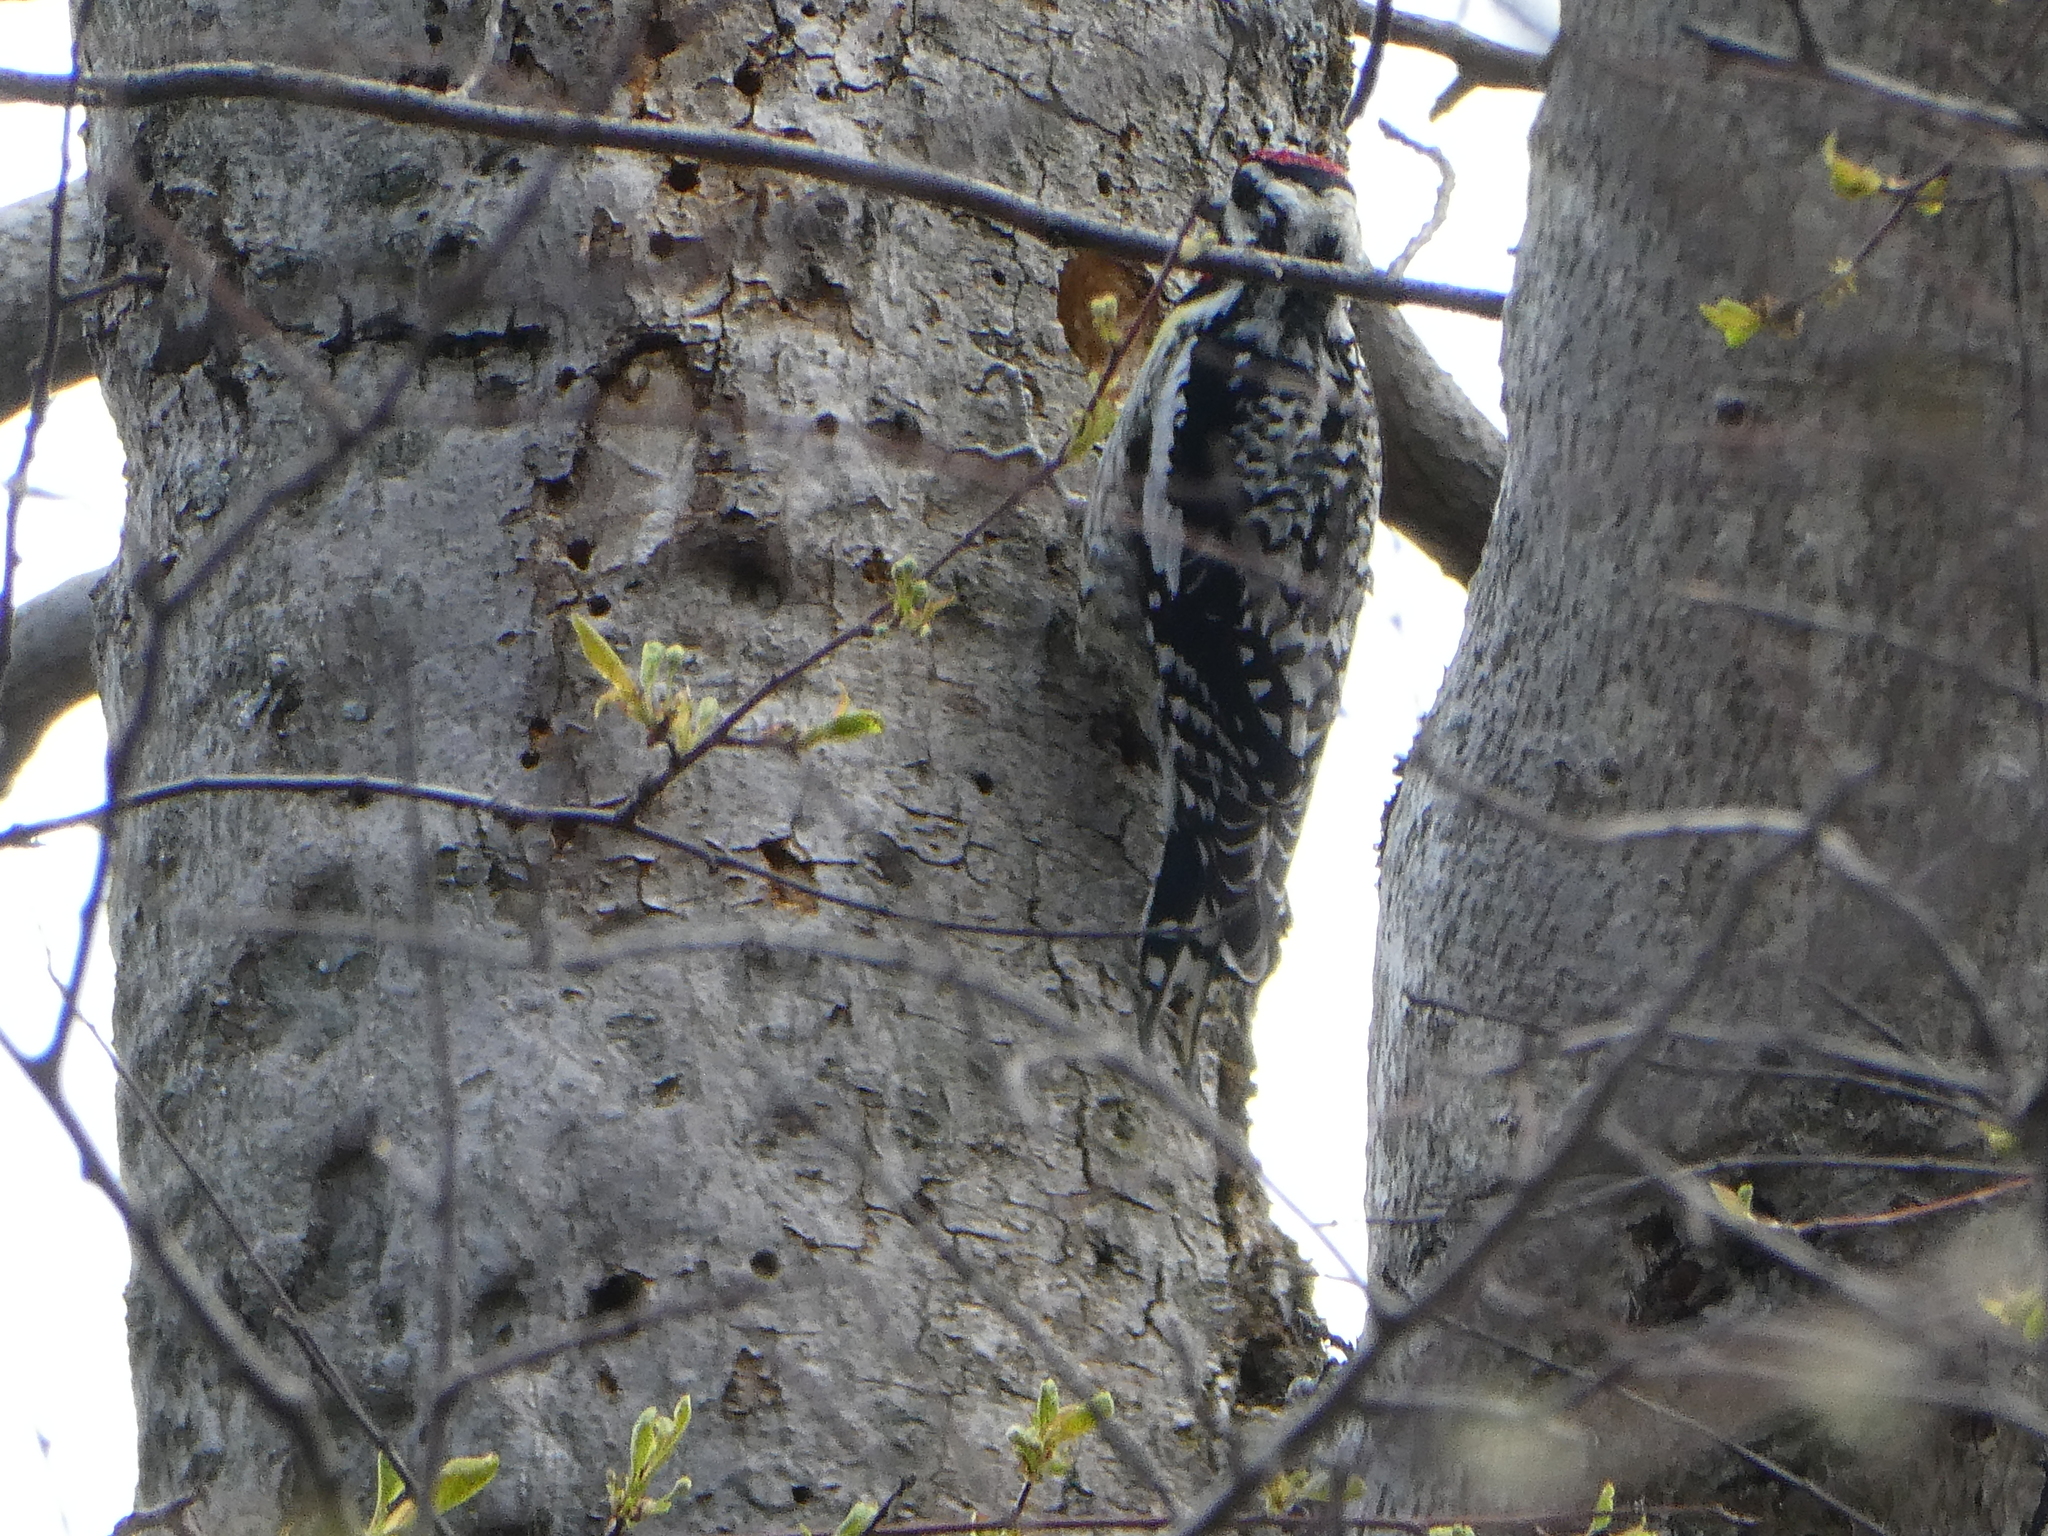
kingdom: Animalia
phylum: Chordata
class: Aves
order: Piciformes
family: Picidae
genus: Sphyrapicus
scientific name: Sphyrapicus varius
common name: Yellow-bellied sapsucker
